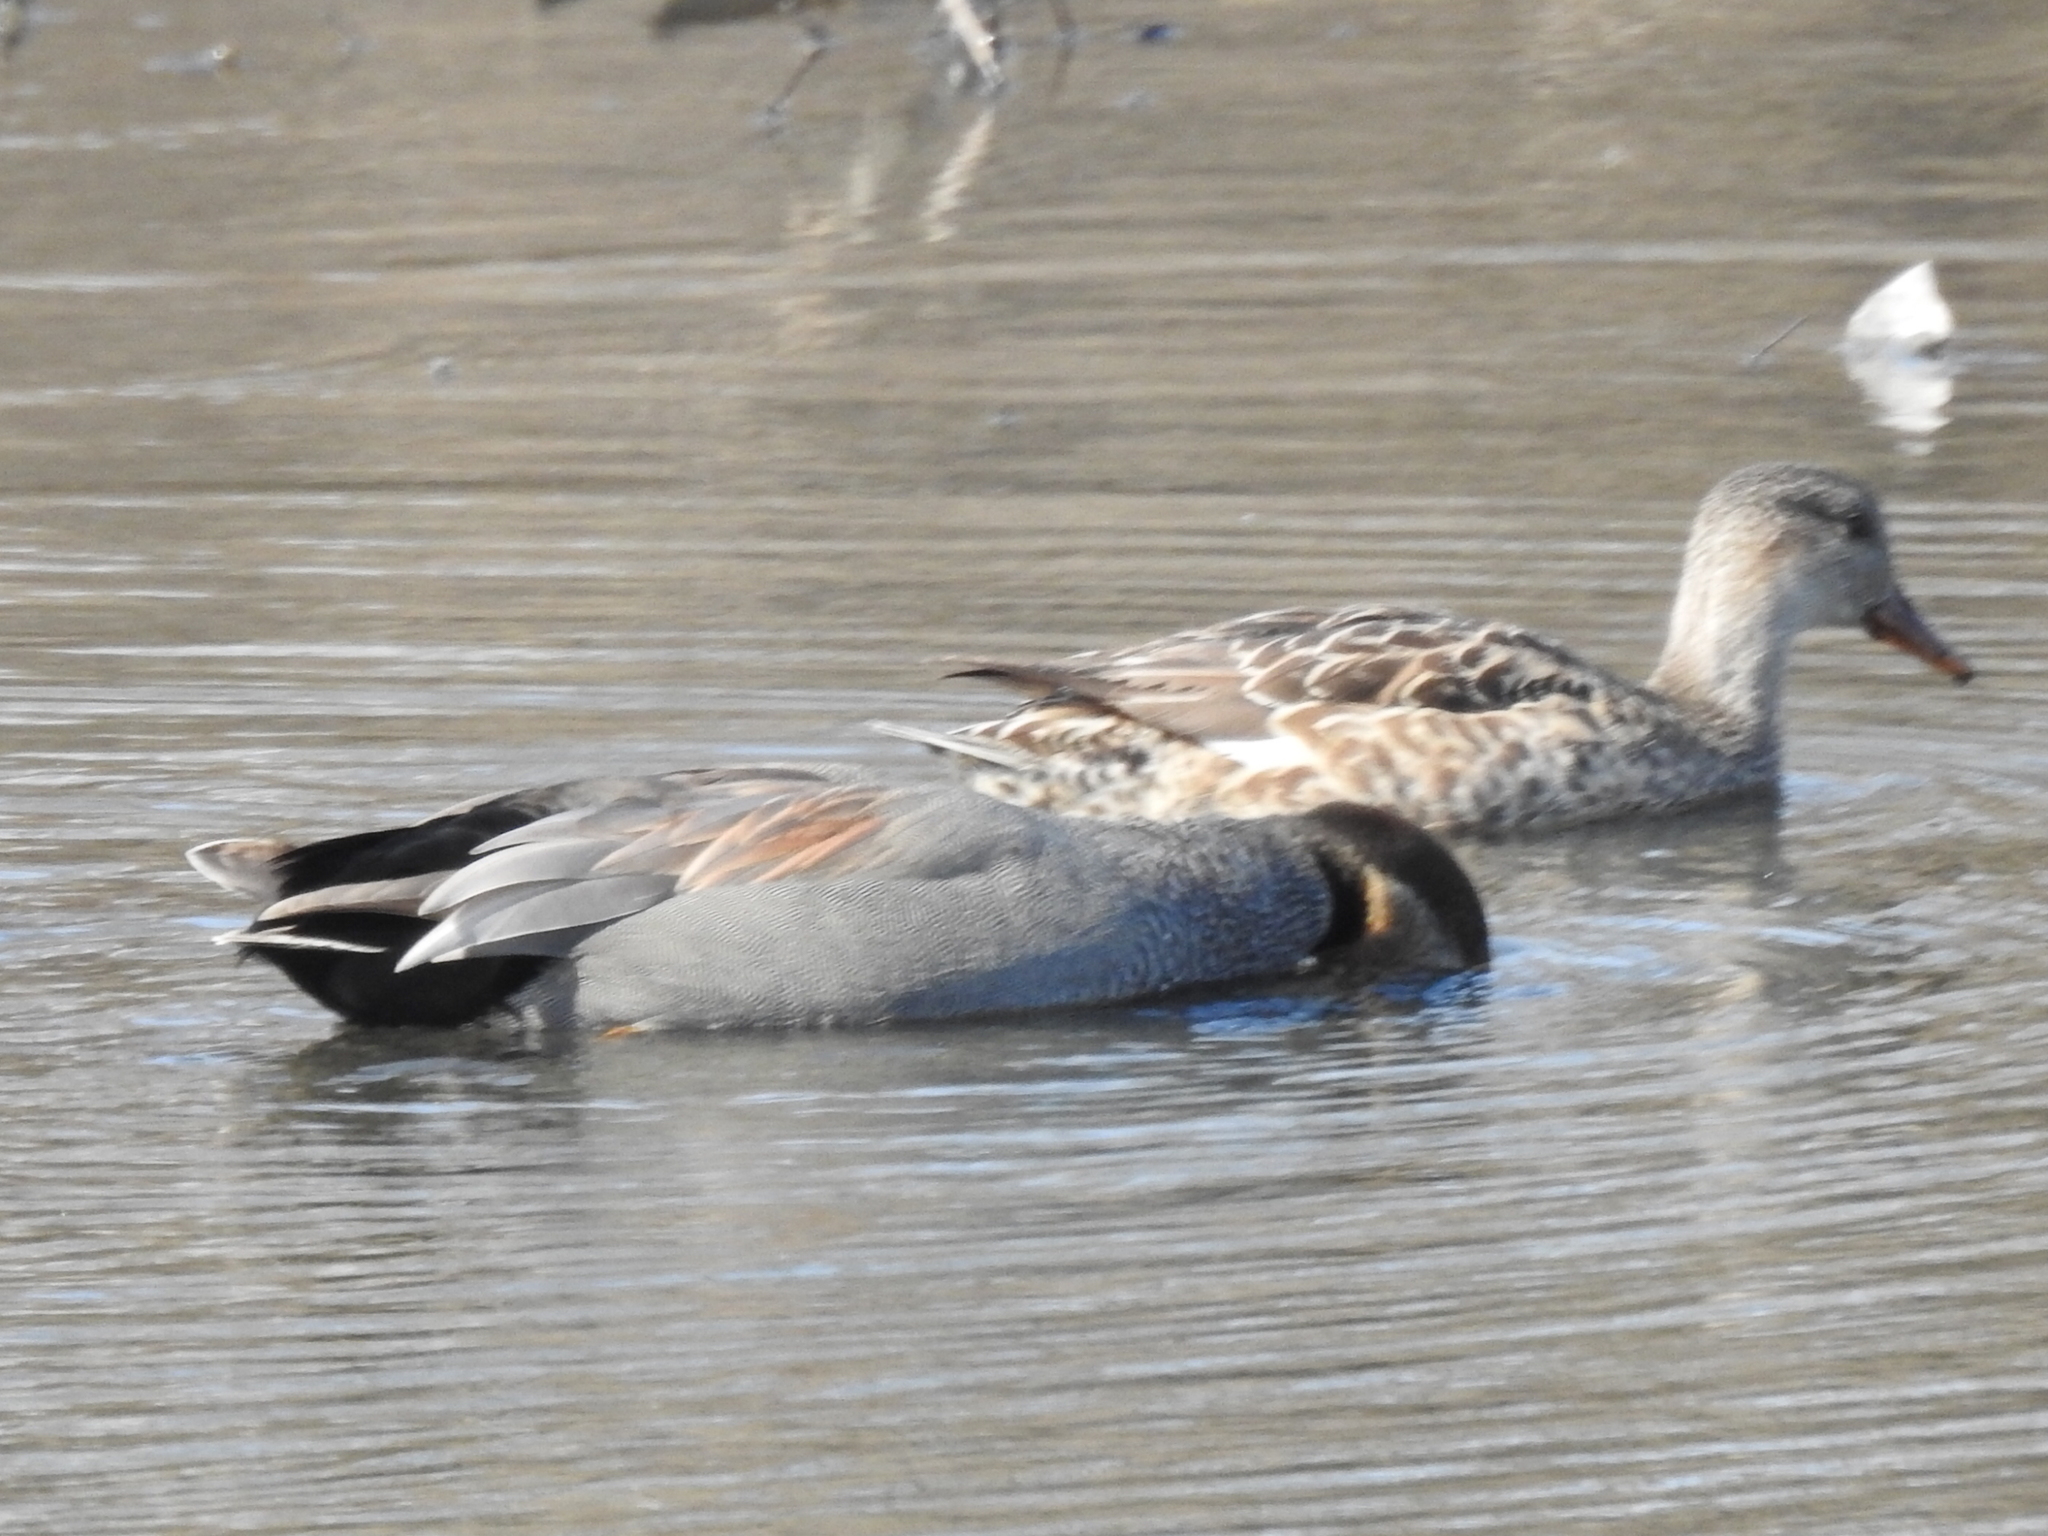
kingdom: Animalia
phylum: Chordata
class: Aves
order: Anseriformes
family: Anatidae
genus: Mareca
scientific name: Mareca strepera
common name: Gadwall
